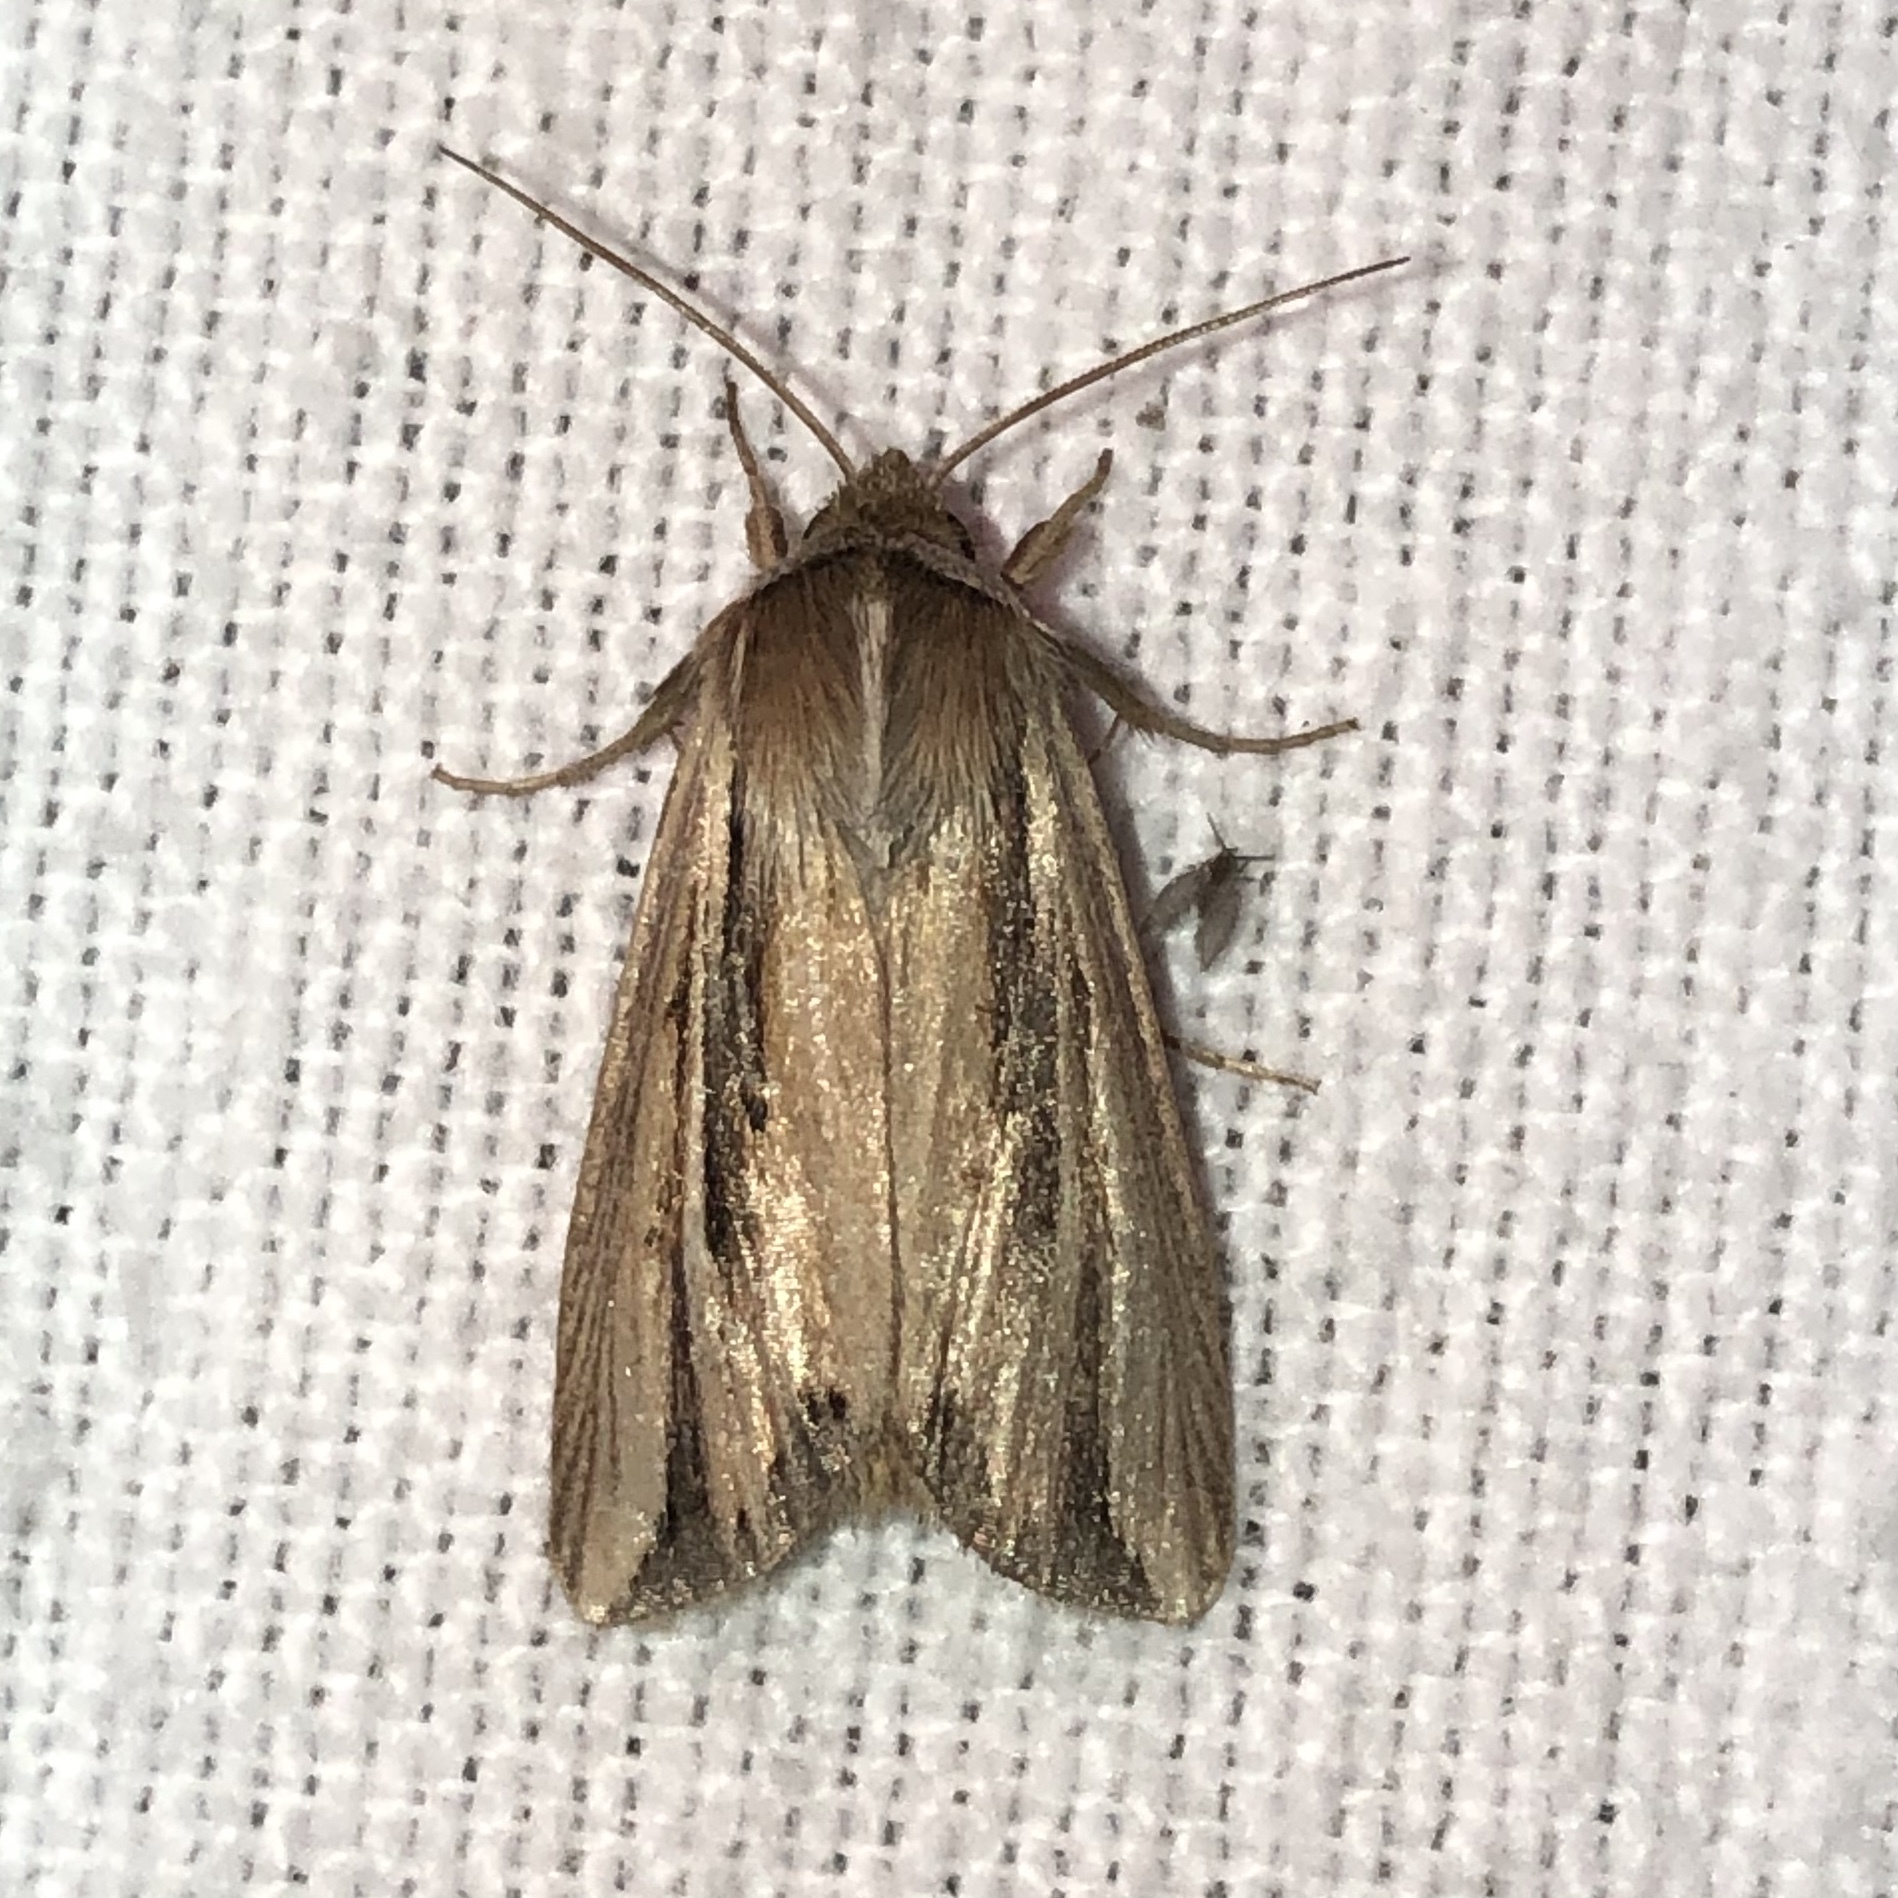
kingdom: Animalia
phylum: Arthropoda
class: Insecta
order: Lepidoptera
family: Noctuidae
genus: Dargida
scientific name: Dargida diffusa
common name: Wheat head armyworm
